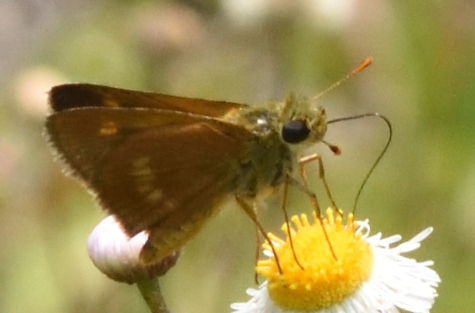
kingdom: Animalia
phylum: Arthropoda
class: Insecta
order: Lepidoptera
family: Hesperiidae
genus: Polites
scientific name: Polites otho
